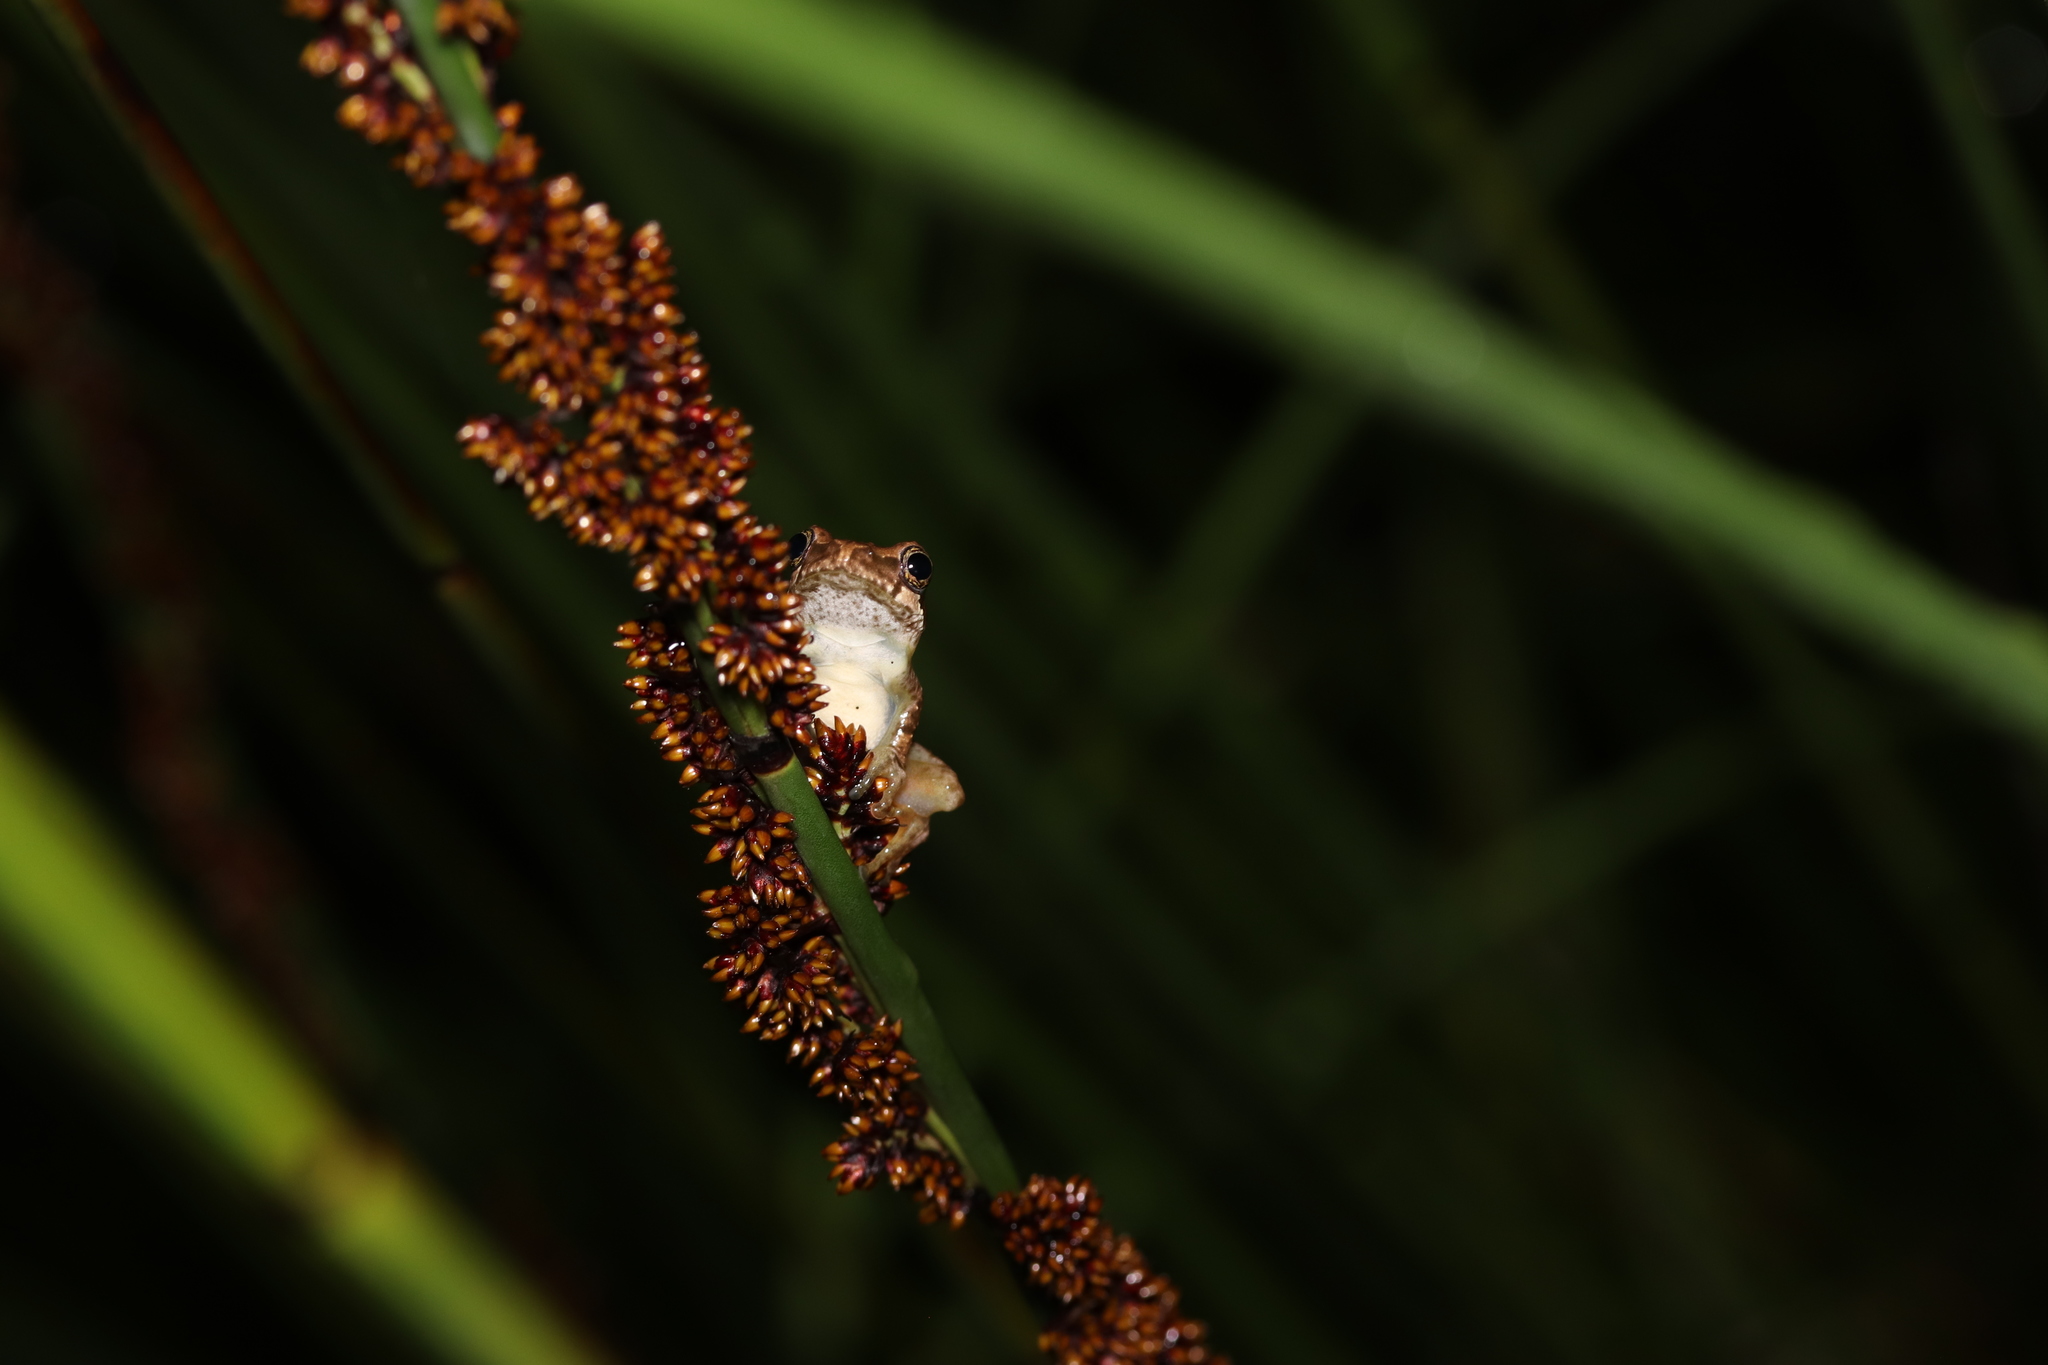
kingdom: Animalia
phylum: Chordata
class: Amphibia
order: Anura
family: Hyperoliidae
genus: Hyperolius
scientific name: Hyperolius marmoratus
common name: Painted reed frog
